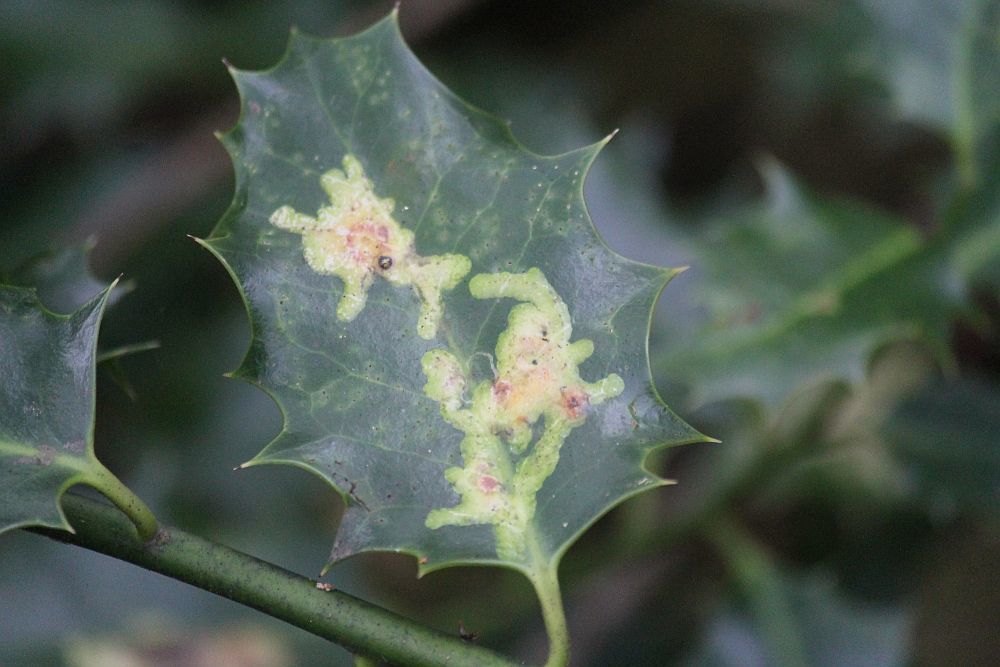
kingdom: Animalia
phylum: Arthropoda
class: Insecta
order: Diptera
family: Agromyzidae
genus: Phytomyza
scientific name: Phytomyza ilicis
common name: Holly leafminer
